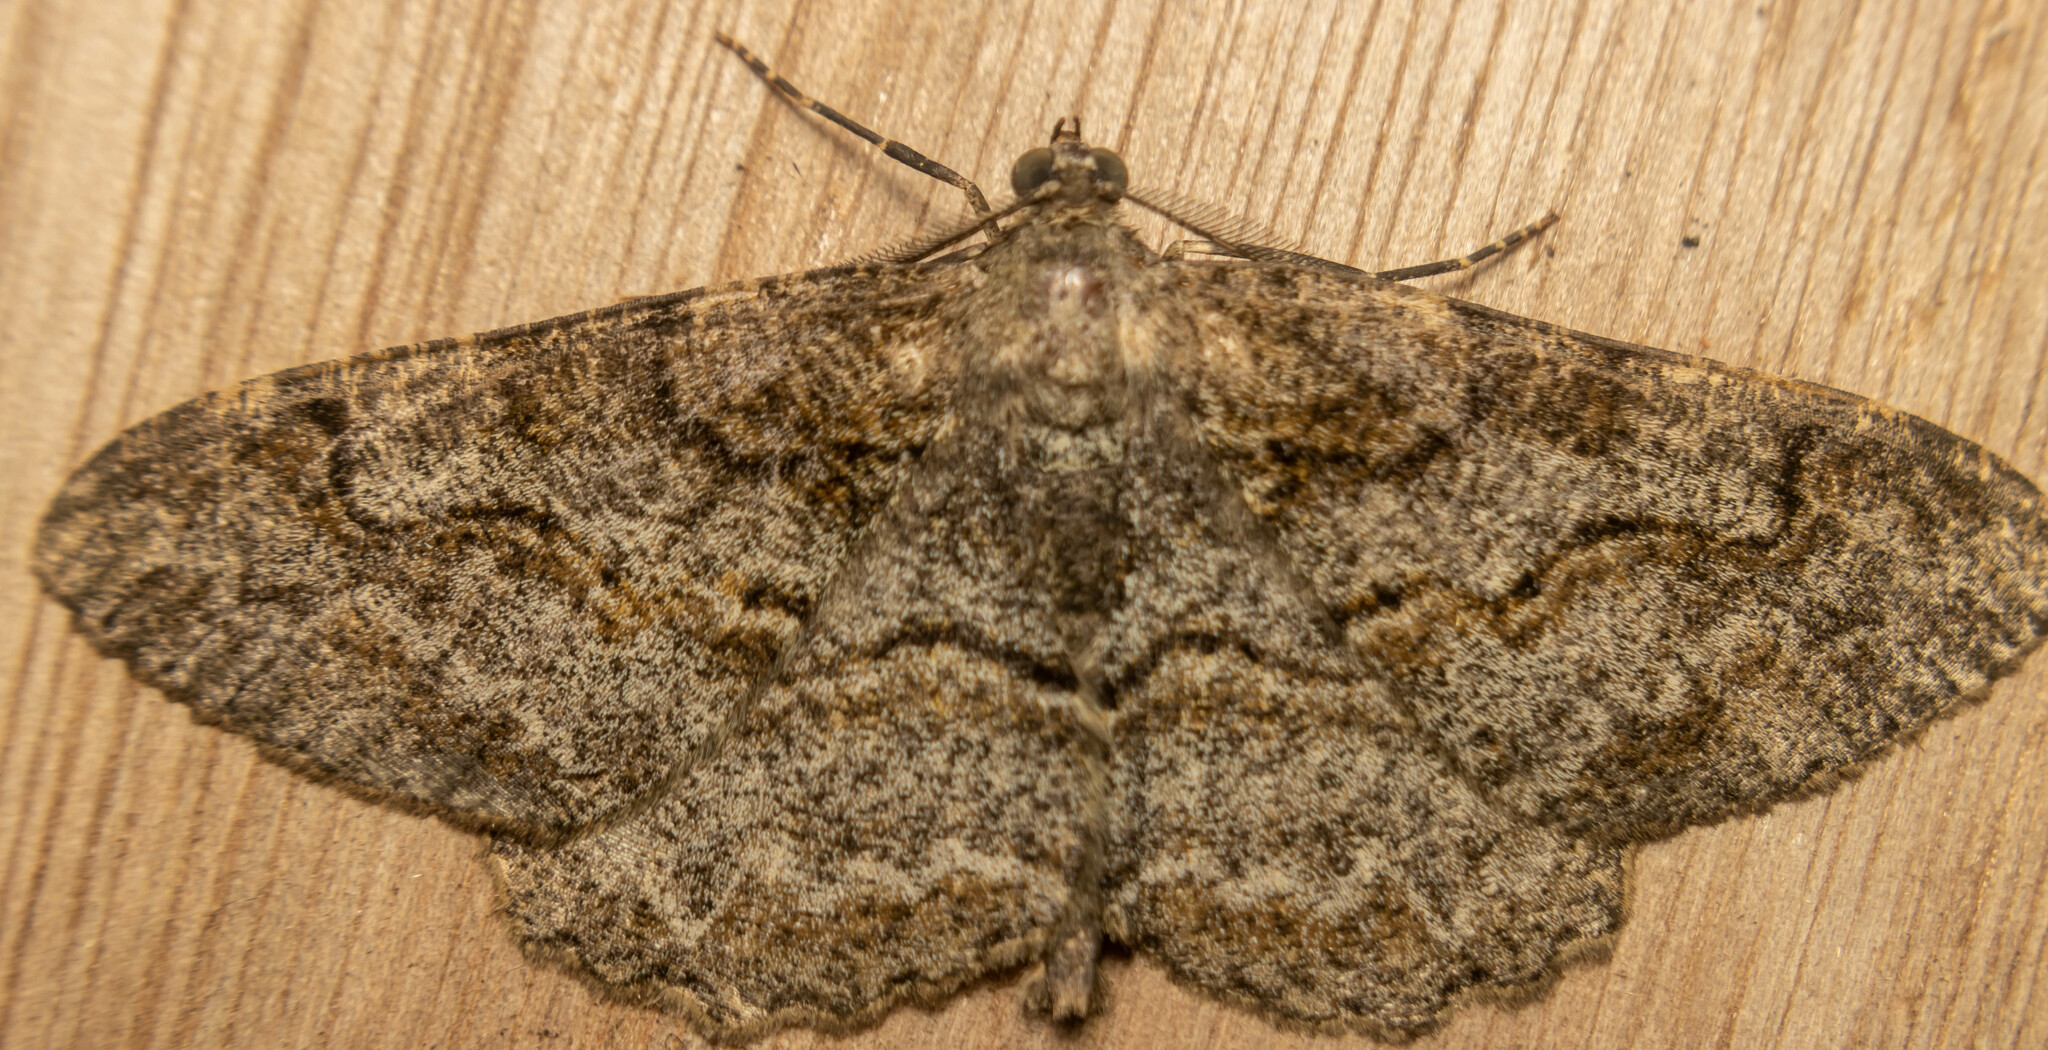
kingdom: Animalia
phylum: Arthropoda
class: Insecta
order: Lepidoptera
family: Geometridae
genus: Alcis
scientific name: Alcis repandata
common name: Mottled beauty
